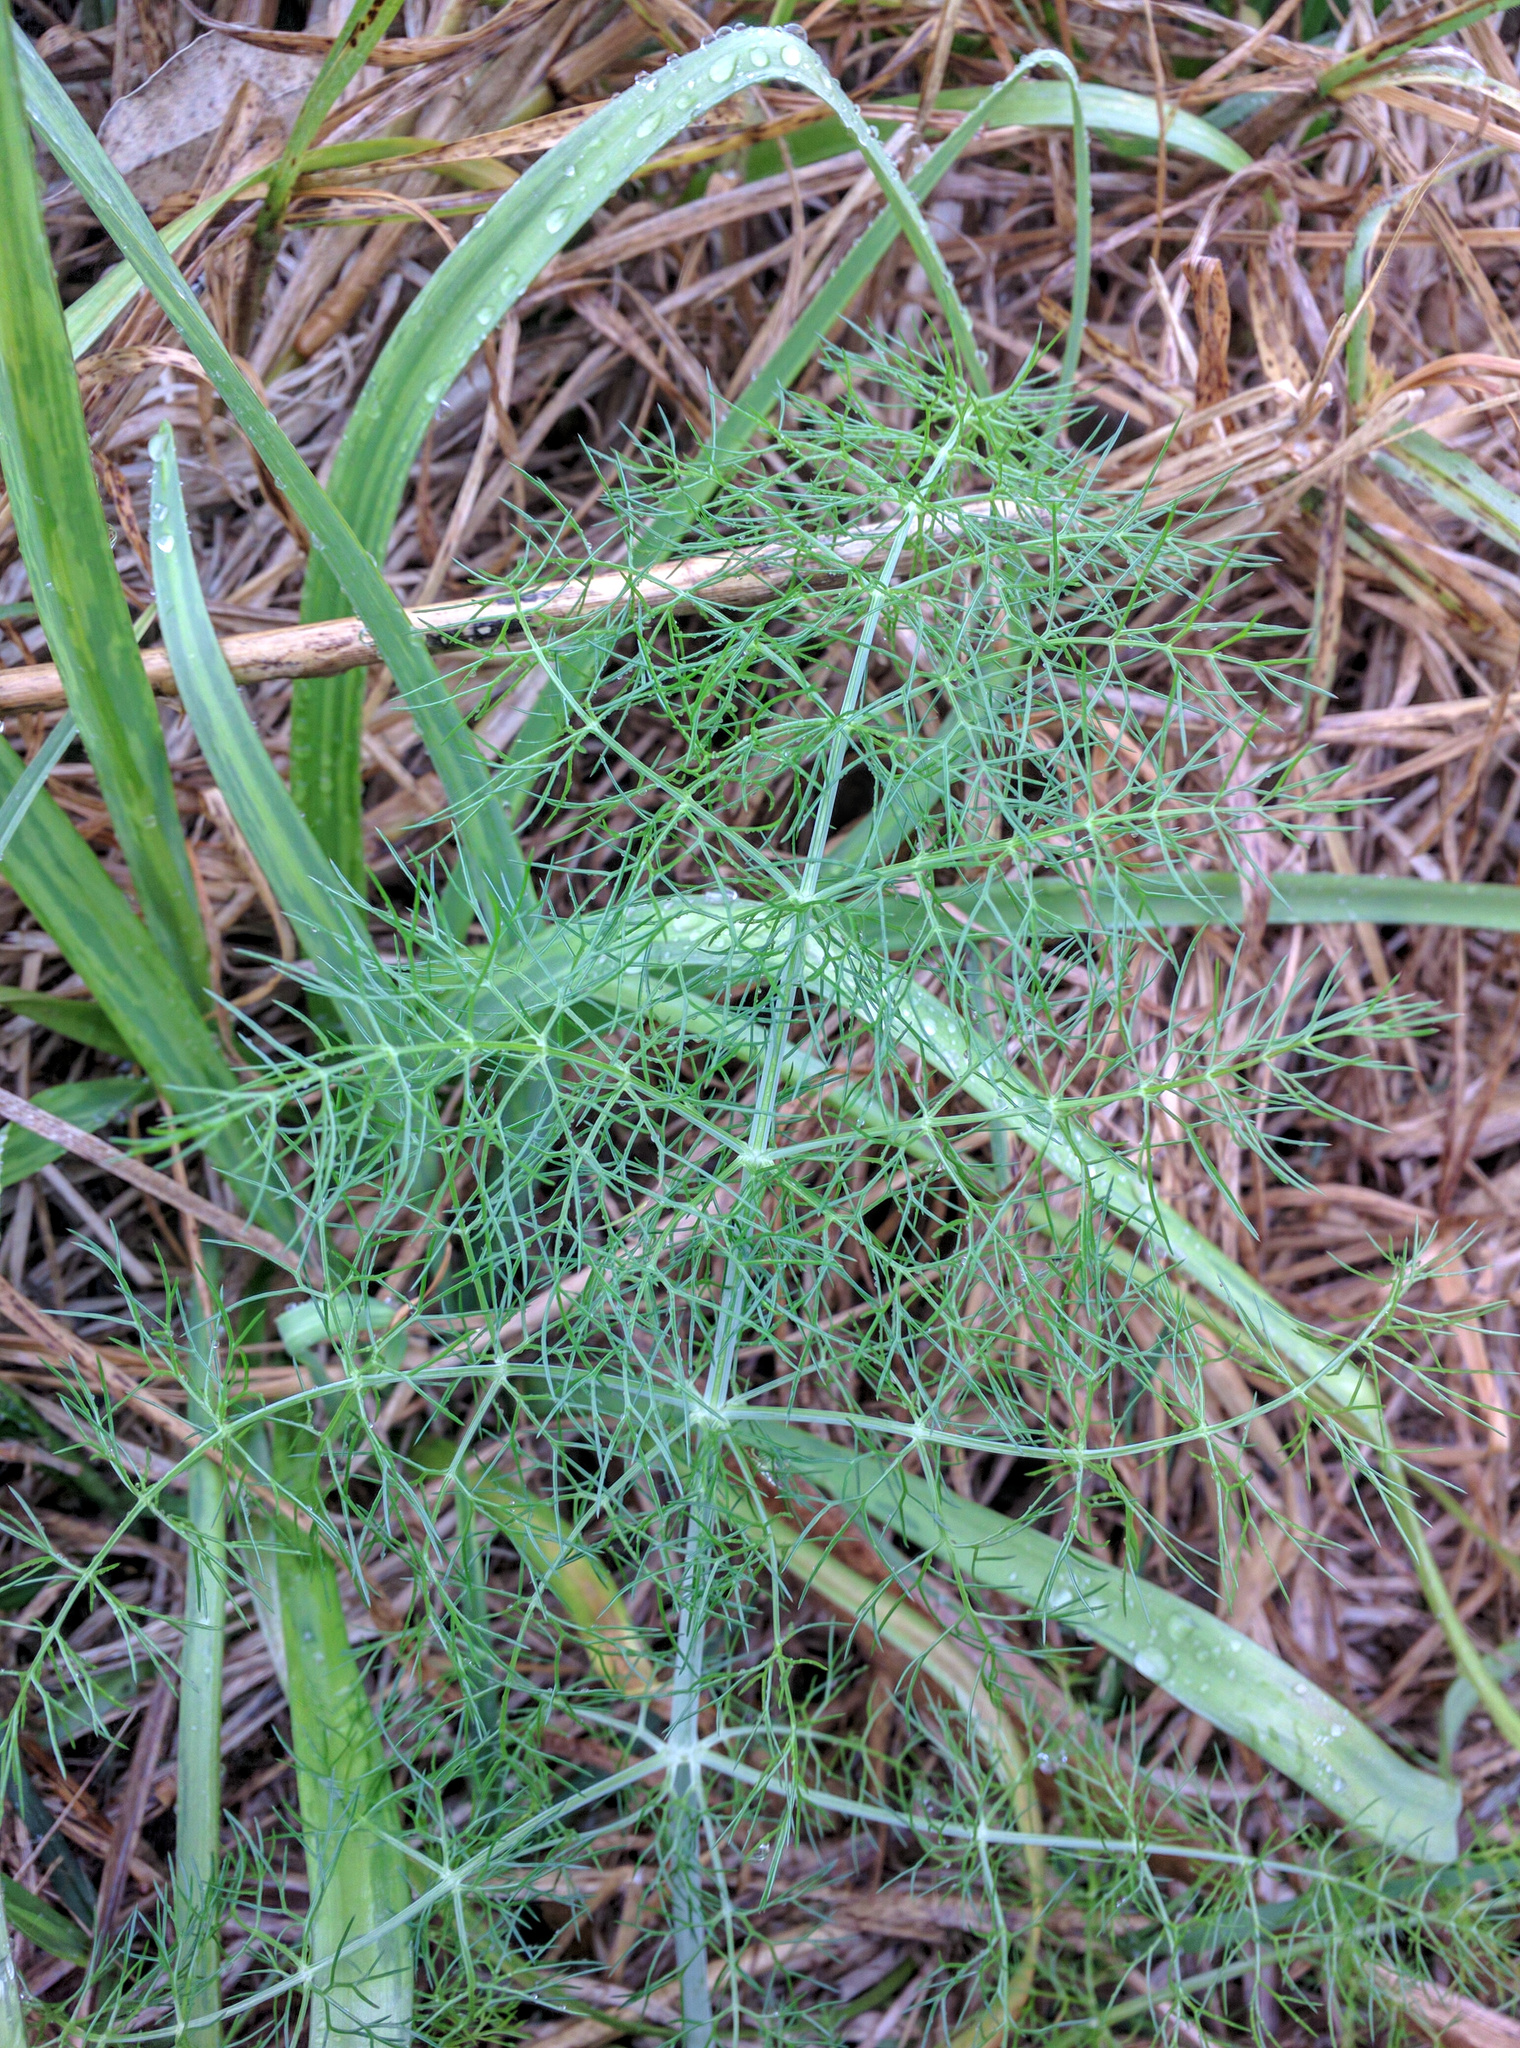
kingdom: Plantae
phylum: Tracheophyta
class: Magnoliopsida
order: Apiales
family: Apiaceae
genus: Foeniculum
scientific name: Foeniculum vulgare
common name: Fennel
